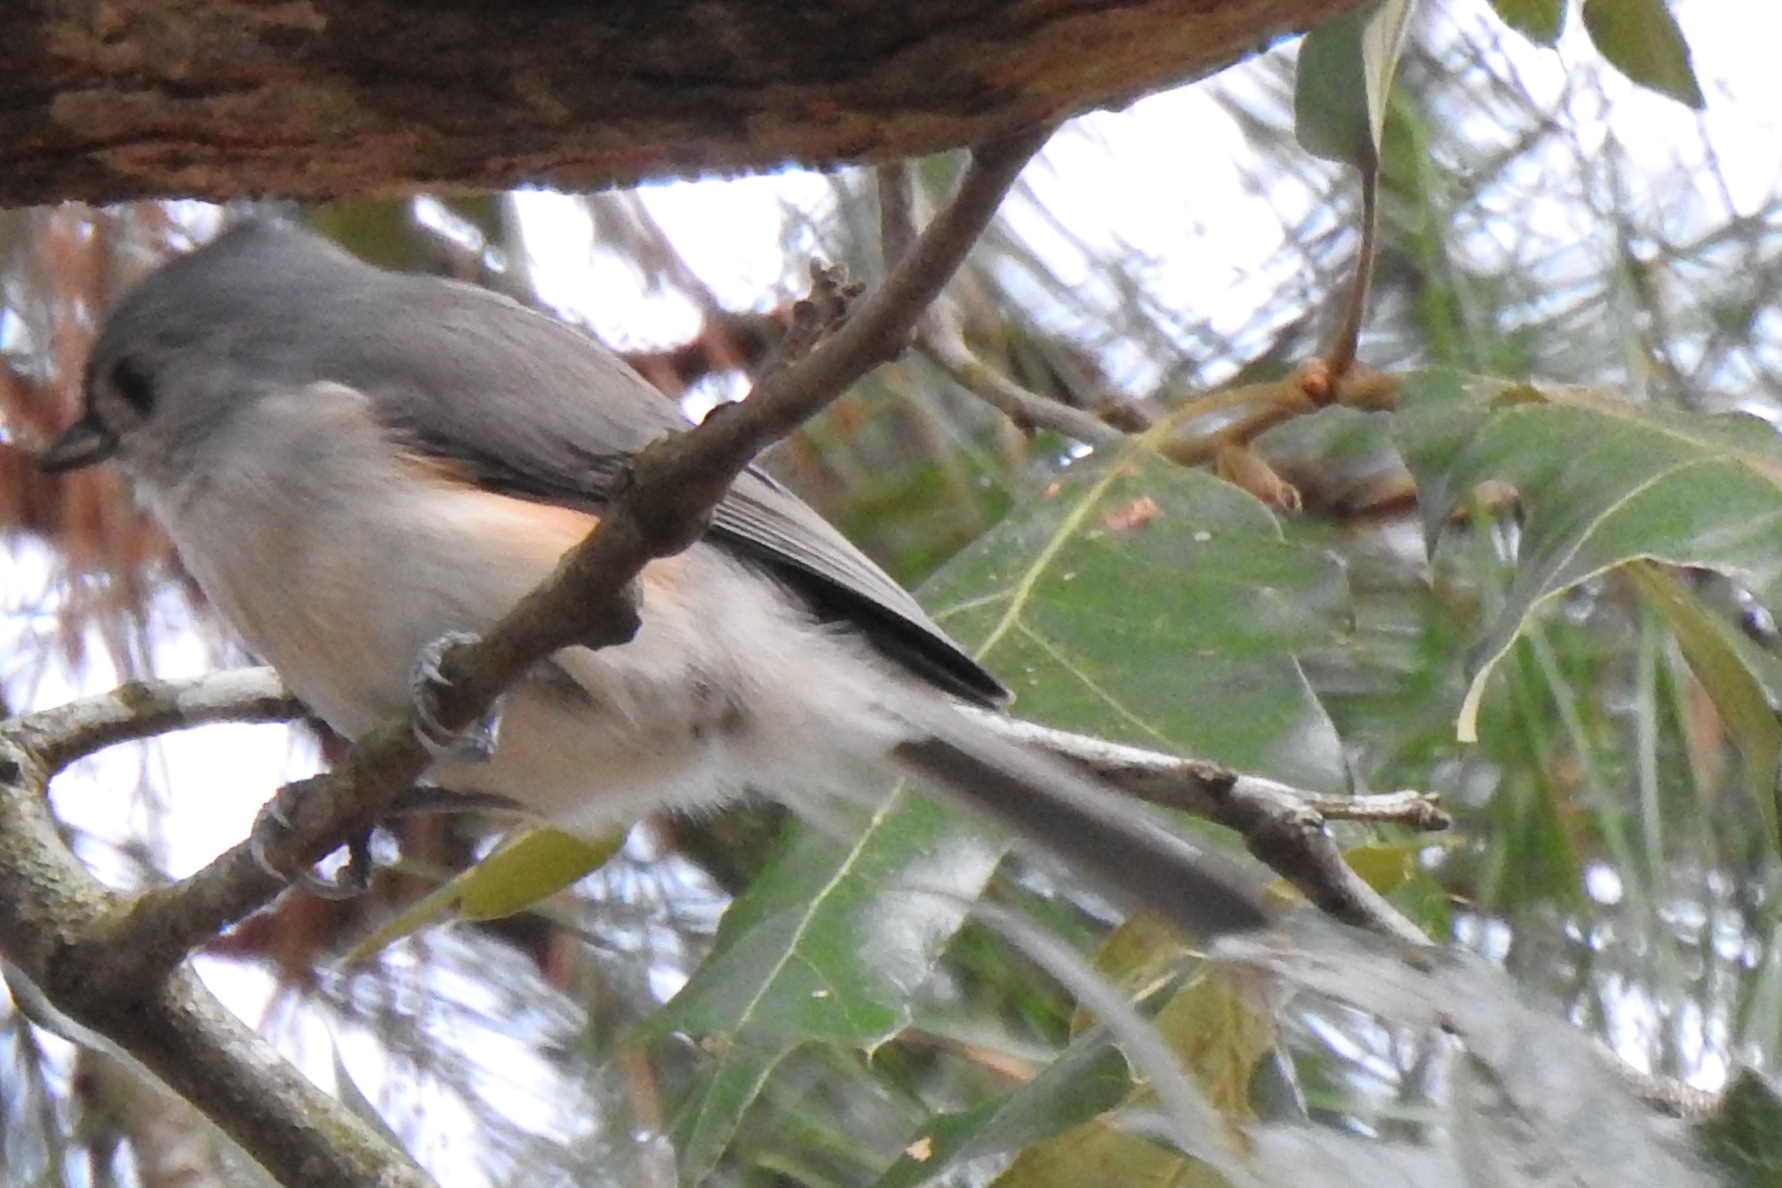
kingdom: Animalia
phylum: Chordata
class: Aves
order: Passeriformes
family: Paridae
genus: Baeolophus
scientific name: Baeolophus bicolor
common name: Tufted titmouse
